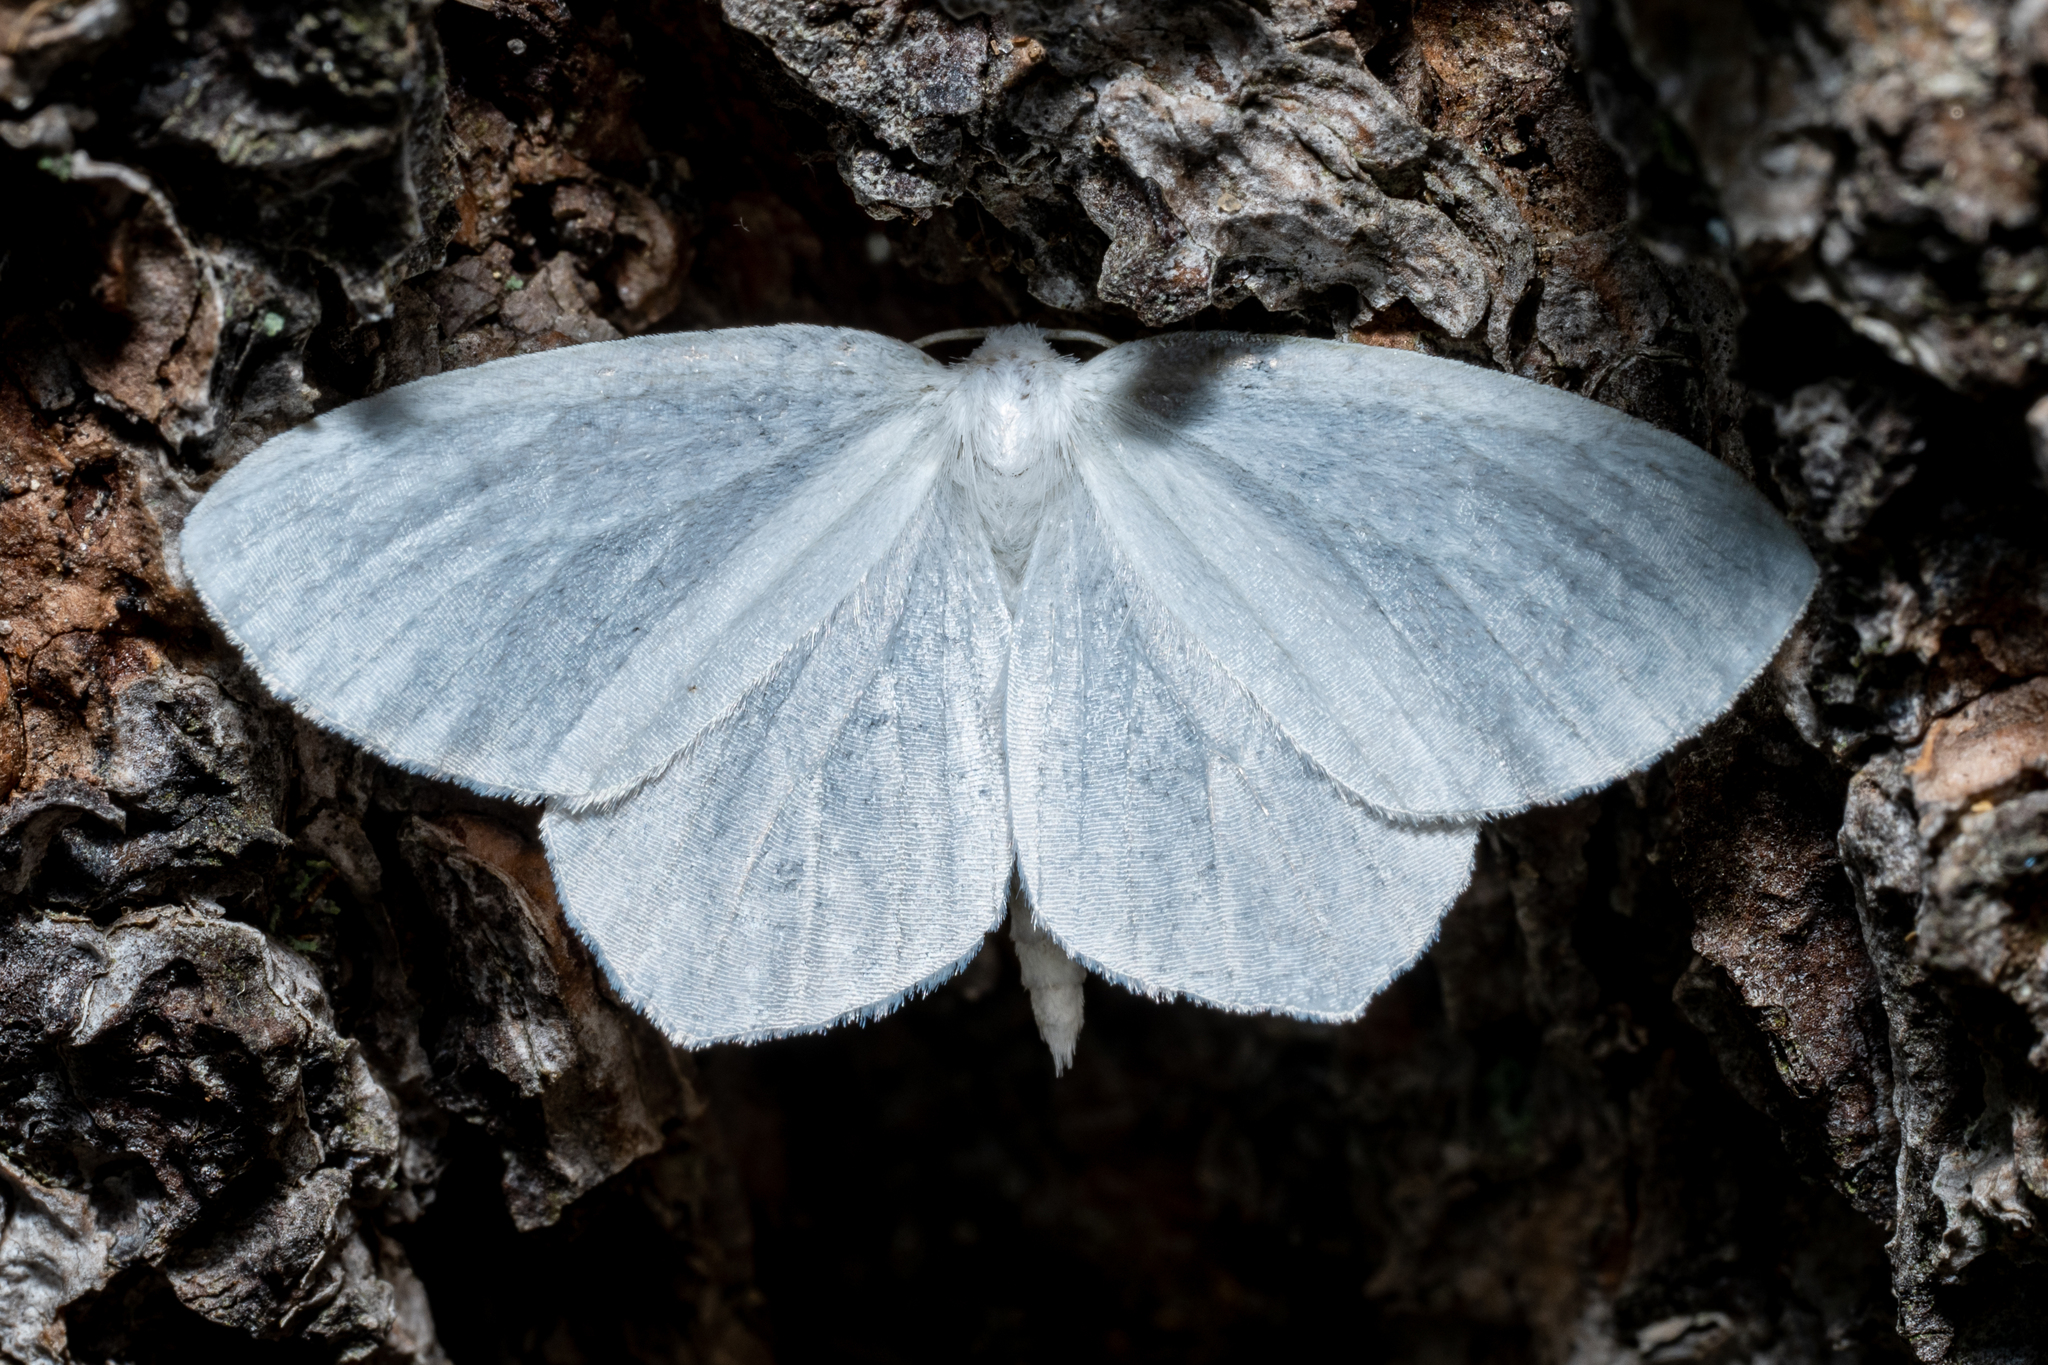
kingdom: Animalia
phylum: Arthropoda
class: Insecta
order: Lepidoptera
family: Geometridae
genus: Eugonobapta
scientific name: Eugonobapta nivosaria
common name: Snowy geometer
